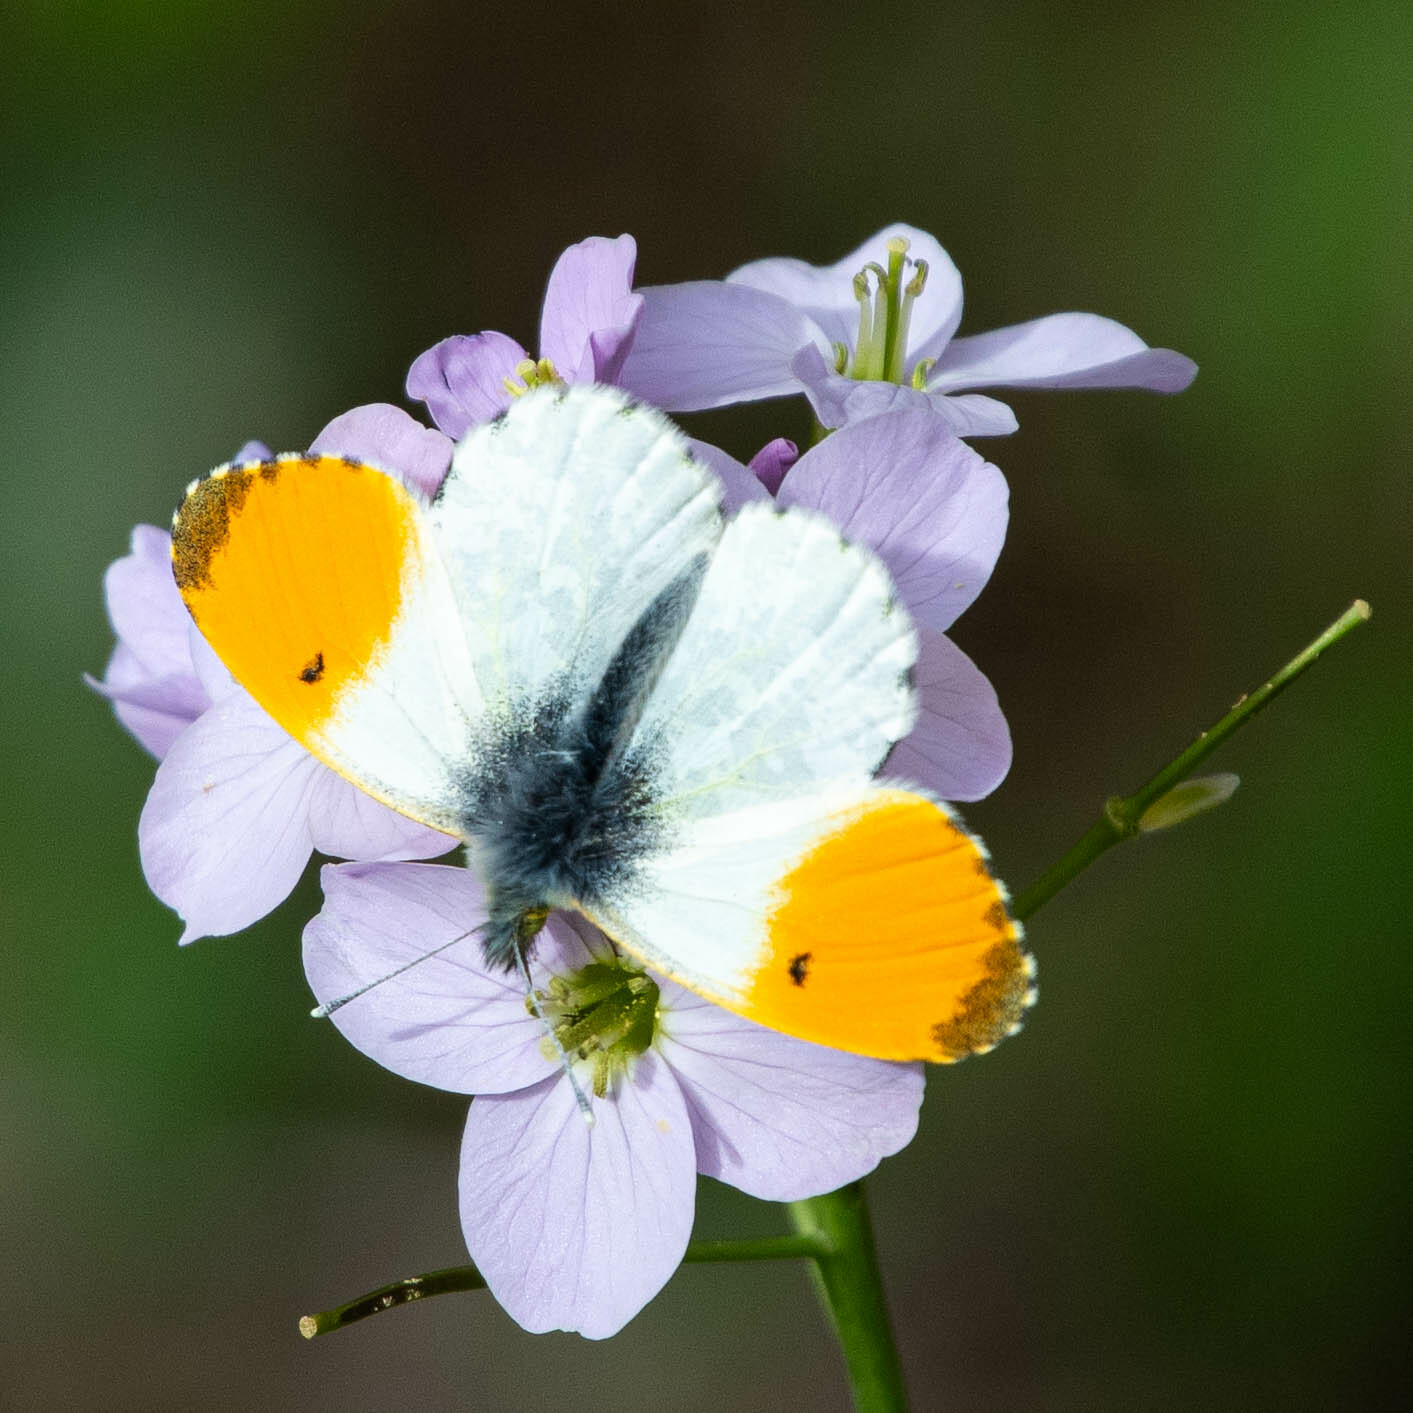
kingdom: Animalia
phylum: Arthropoda
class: Insecta
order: Lepidoptera
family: Pieridae
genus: Anthocharis
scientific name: Anthocharis cardamines
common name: Orange-tip
